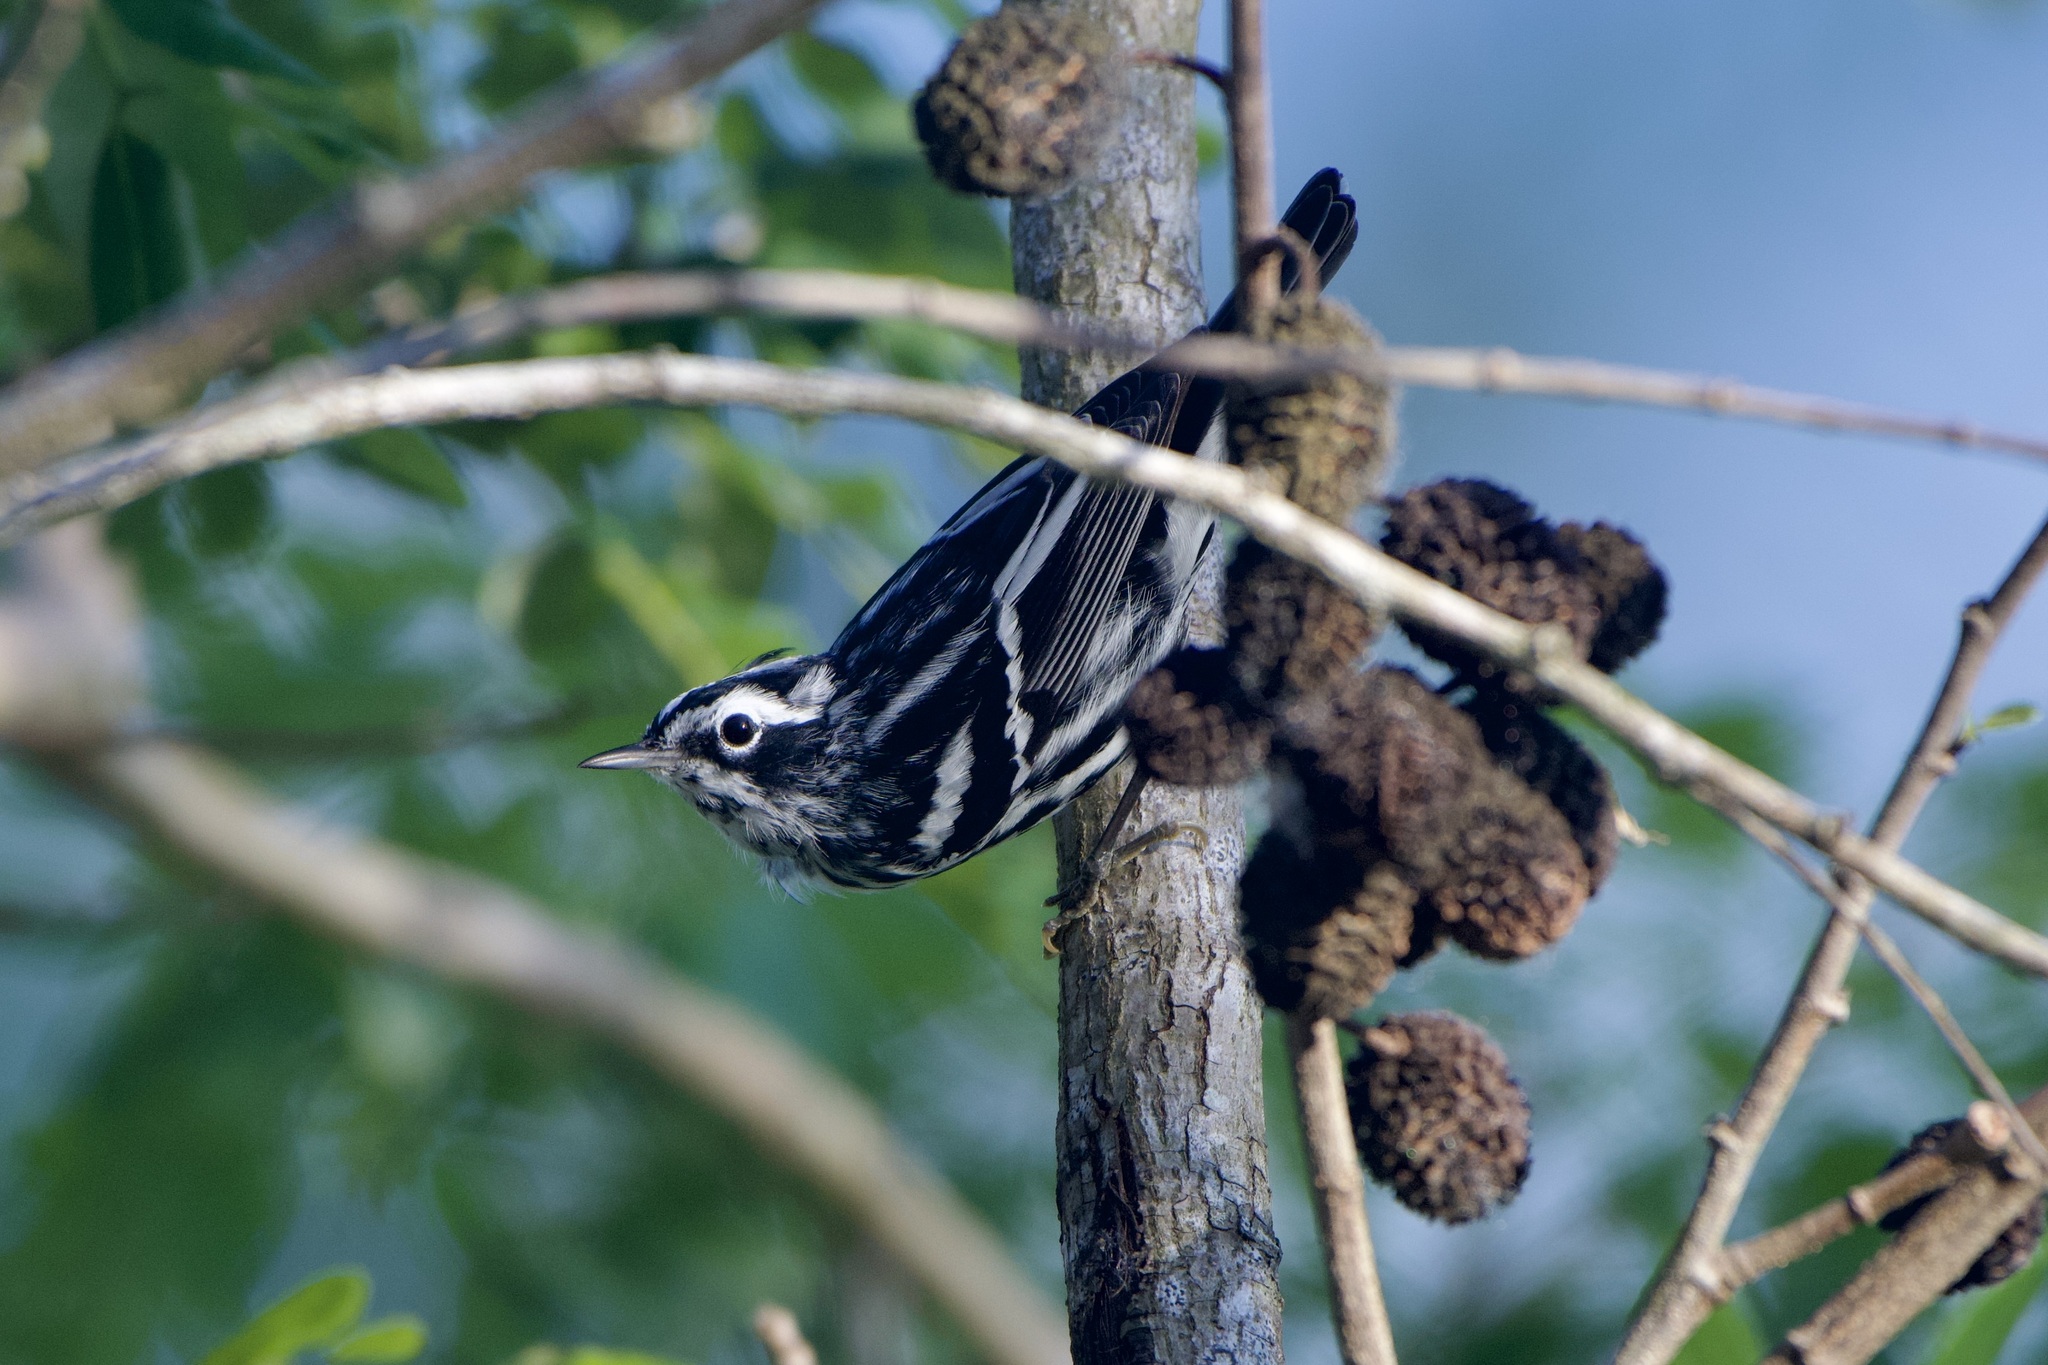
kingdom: Animalia
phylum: Chordata
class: Aves
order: Passeriformes
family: Parulidae
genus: Mniotilta
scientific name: Mniotilta varia
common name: Black-and-white warbler
